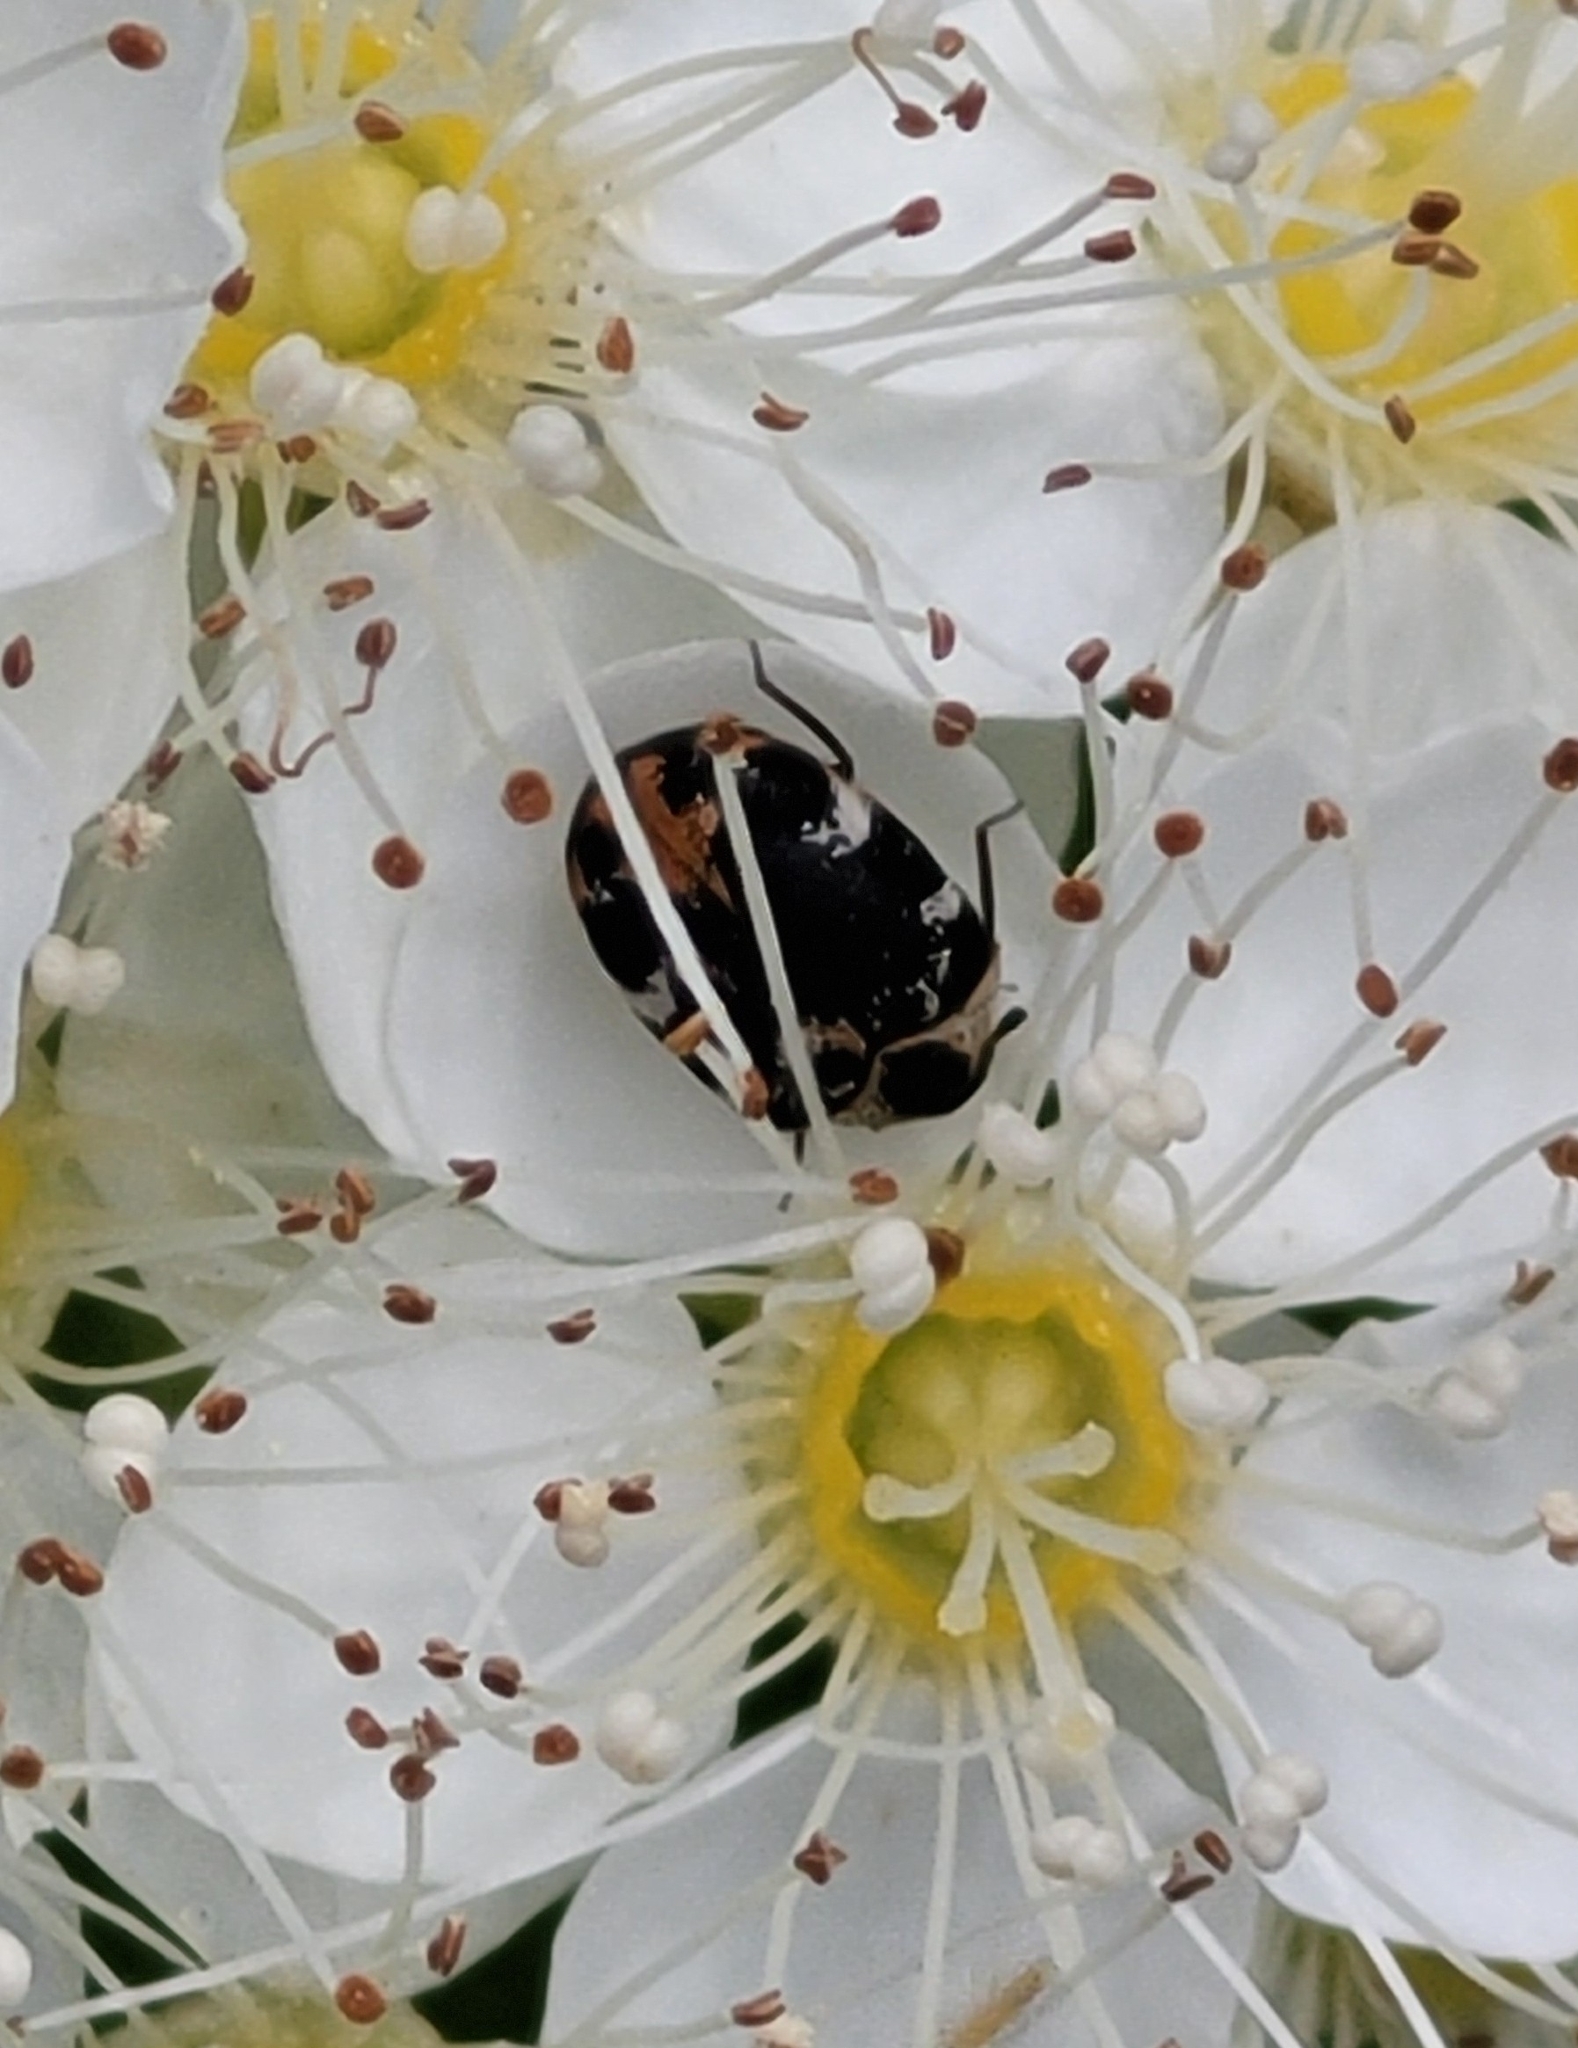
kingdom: Animalia
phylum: Arthropoda
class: Insecta
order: Coleoptera
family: Dermestidae
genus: Anthrenus
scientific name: Anthrenus scrophulariae
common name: Buffalo carpet beetle
